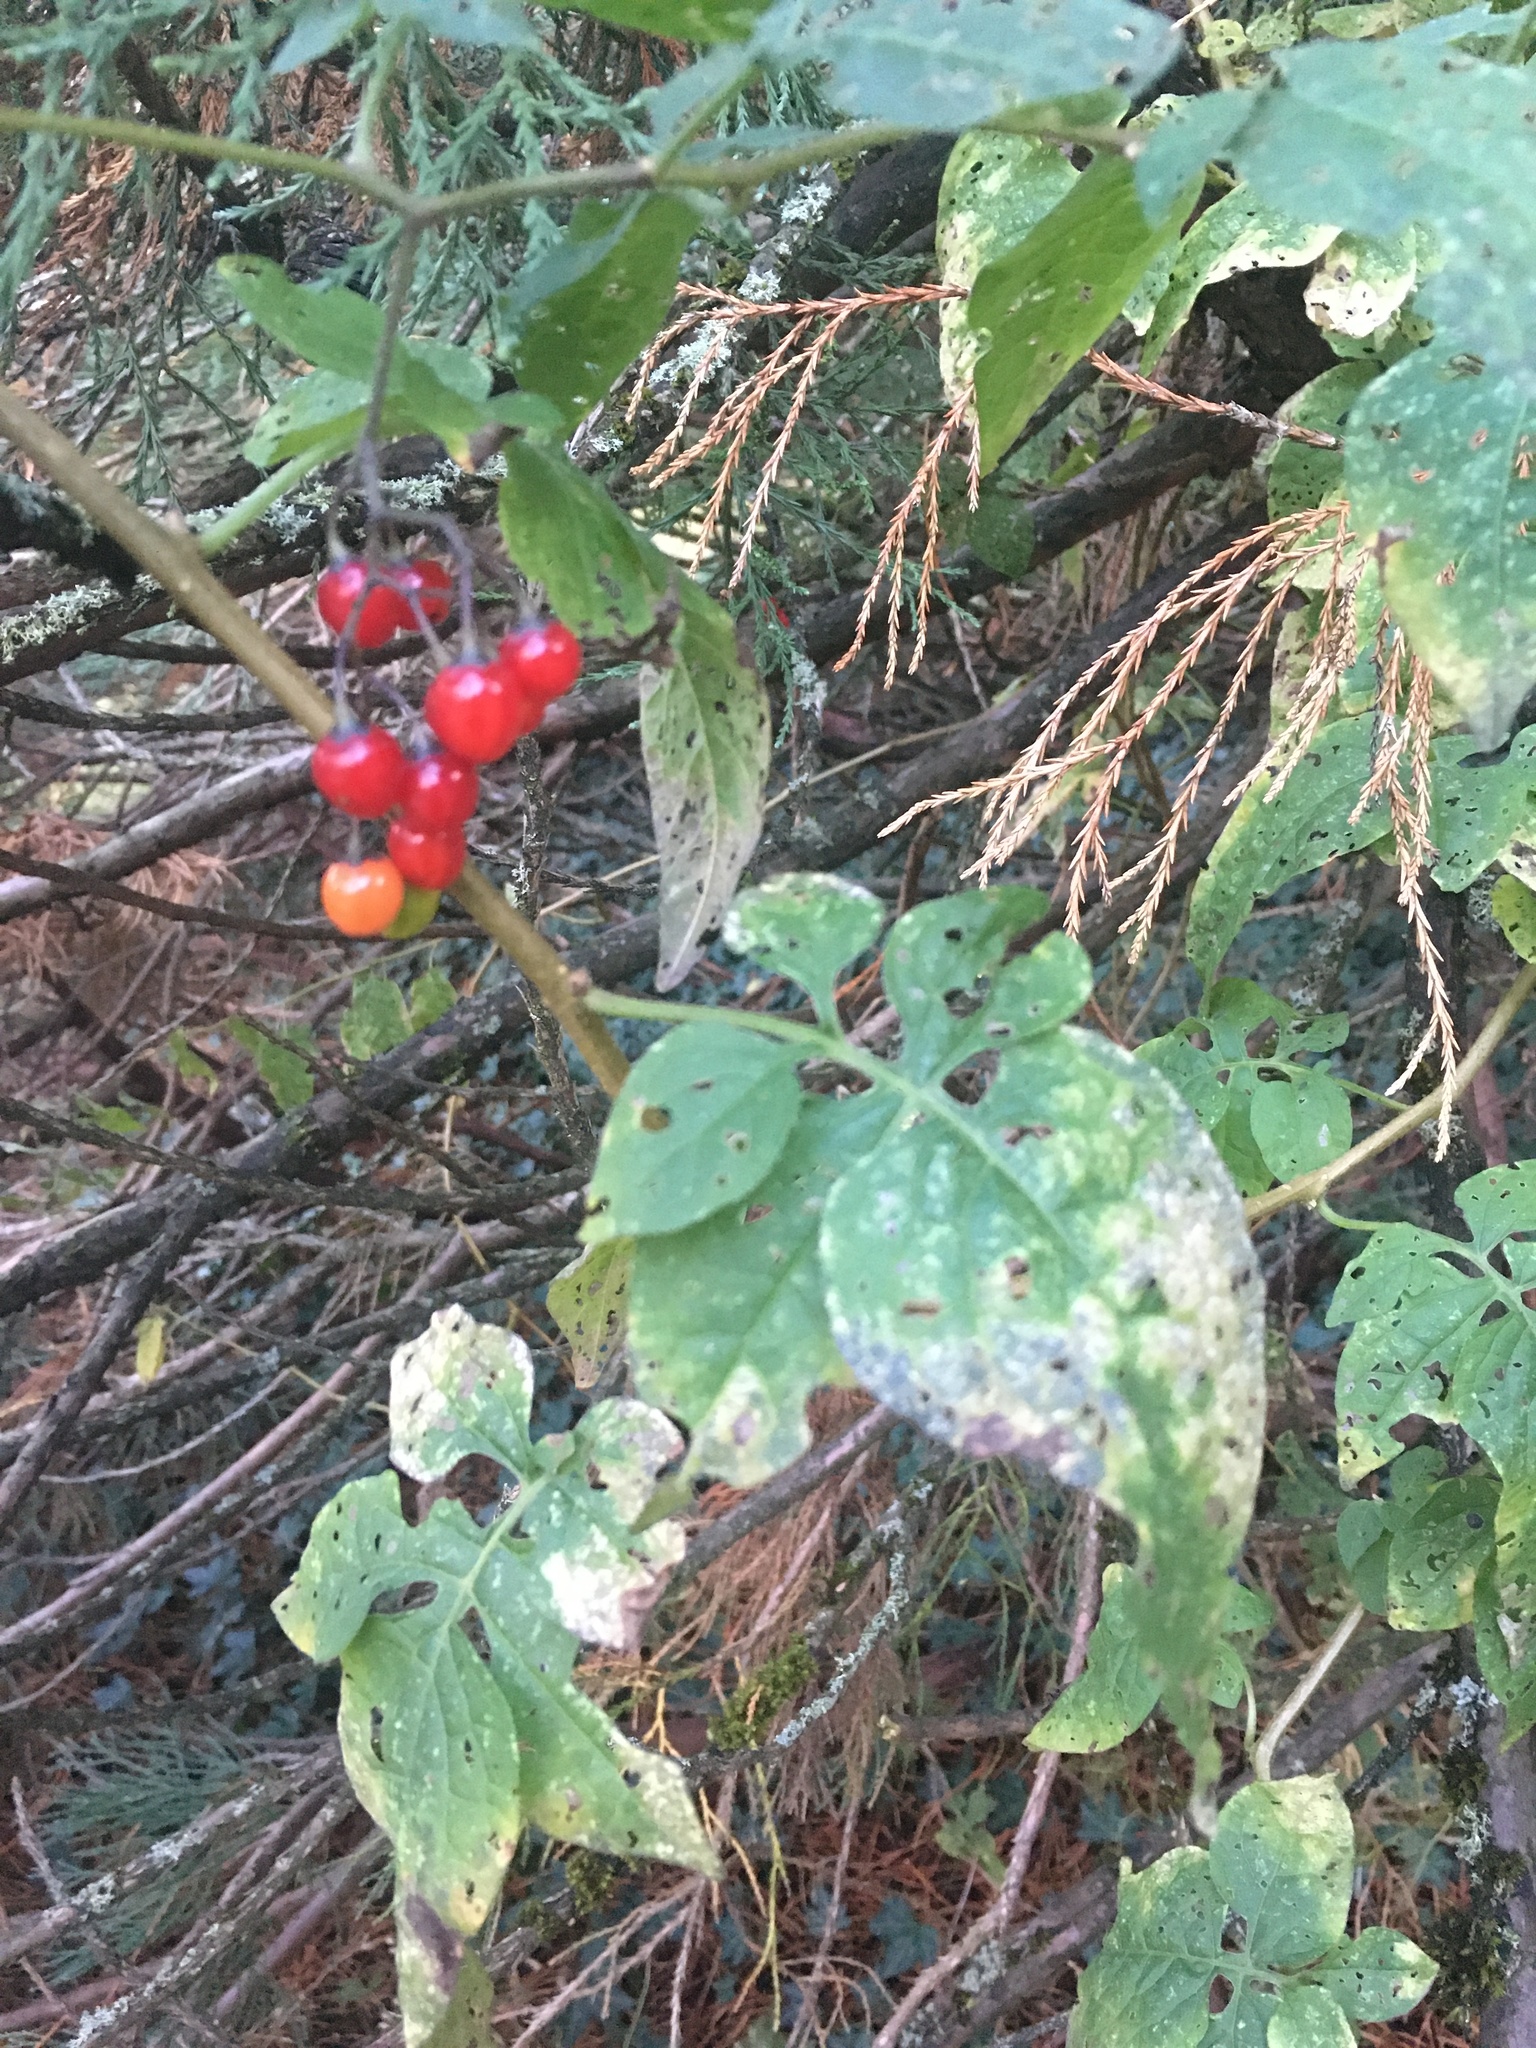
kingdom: Plantae
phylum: Tracheophyta
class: Magnoliopsida
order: Solanales
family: Solanaceae
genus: Solanum
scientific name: Solanum dulcamara
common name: Climbing nightshade
